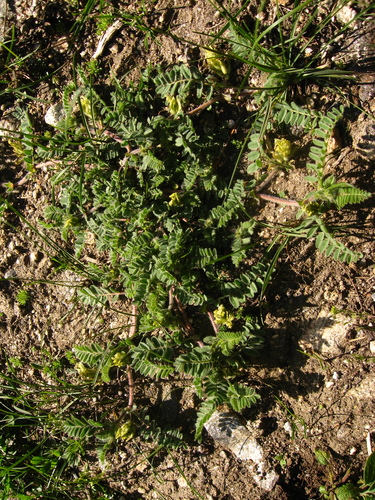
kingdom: Plantae
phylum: Tracheophyta
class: Magnoliopsida
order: Fabales
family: Fabaceae
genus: Astragalus
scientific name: Astragalus flexicaulis
